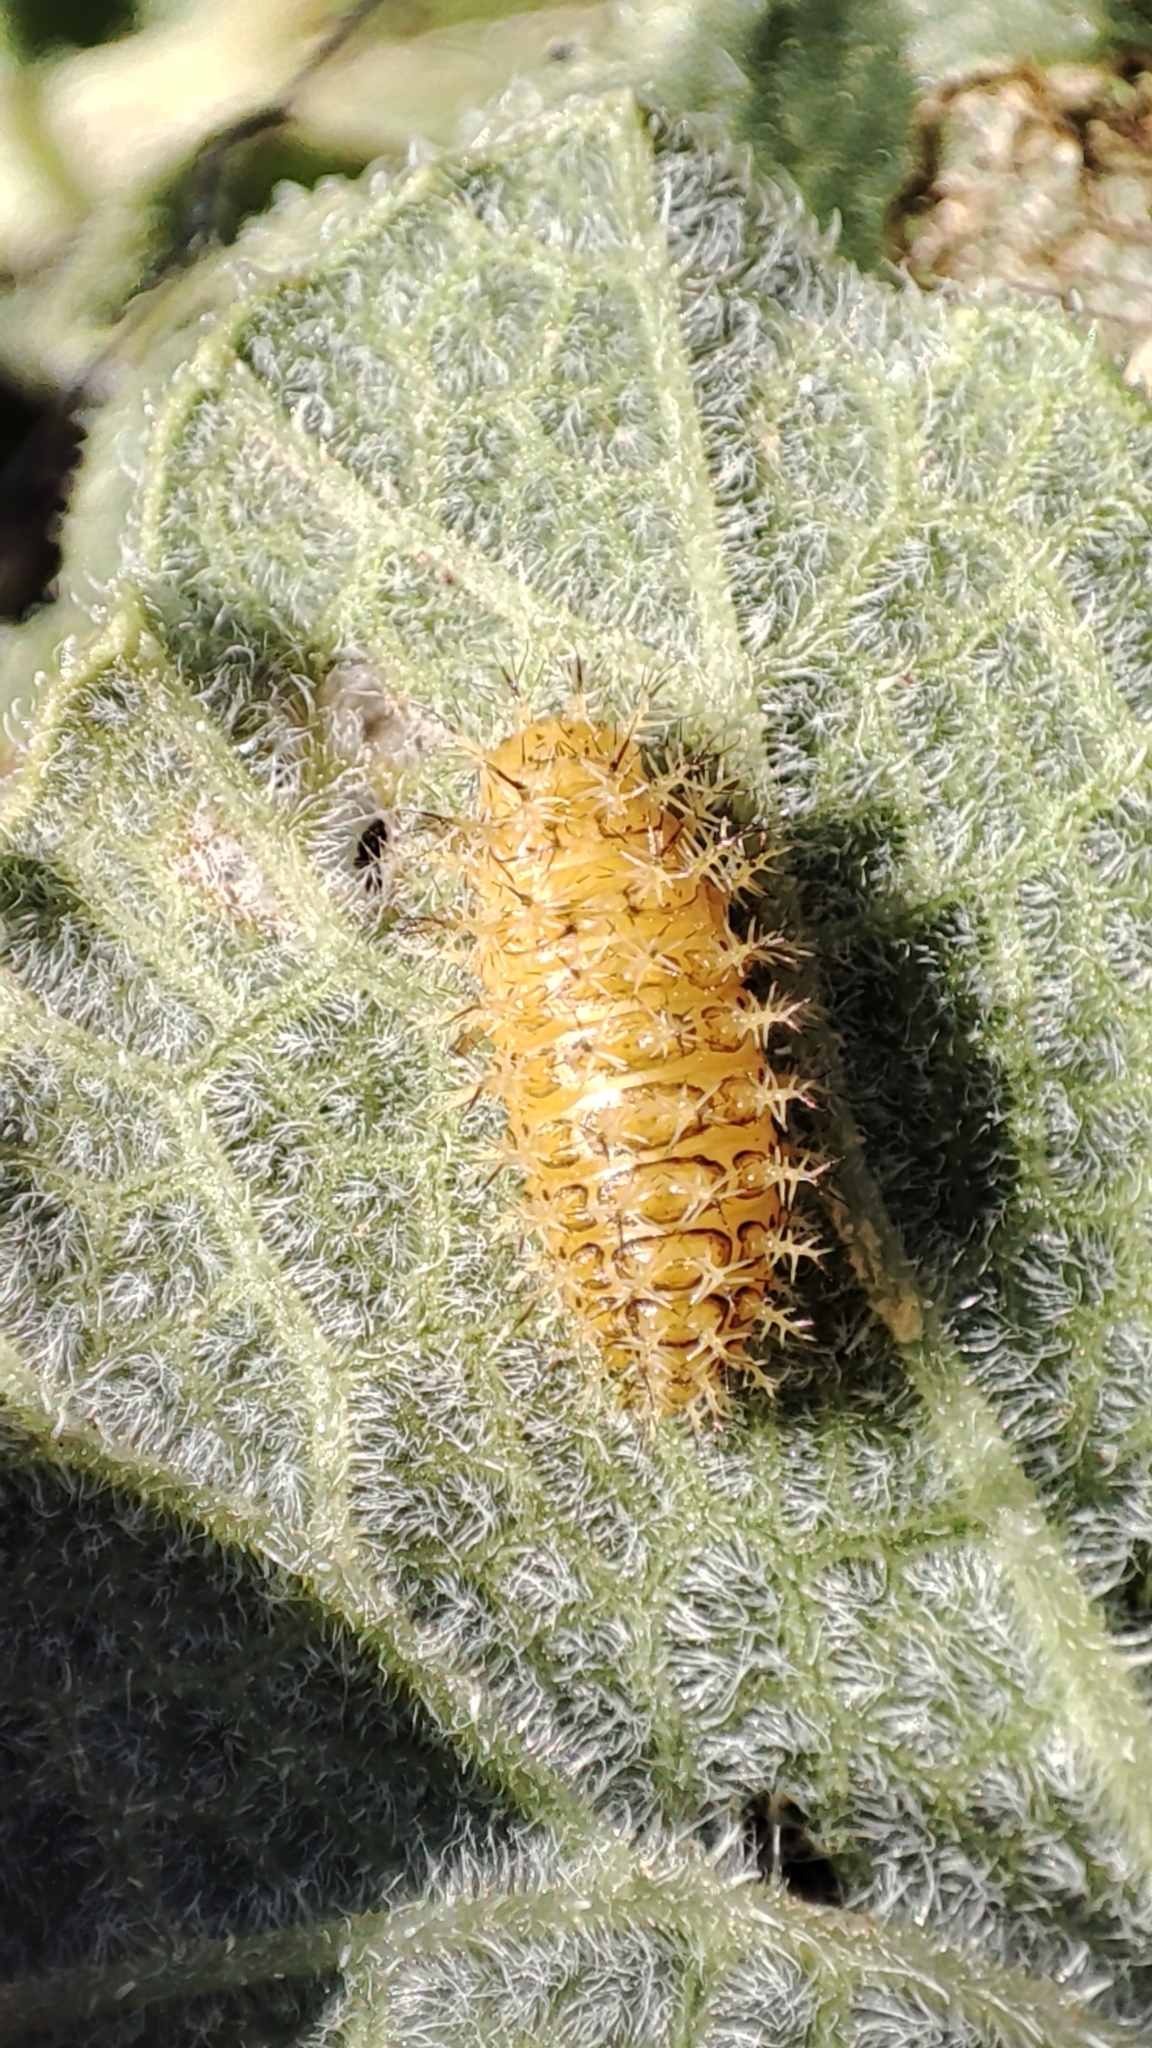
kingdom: Animalia
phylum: Arthropoda
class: Insecta
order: Coleoptera
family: Coccinellidae
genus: Henosepilachna
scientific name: Henosepilachna argus
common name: Bryony ladybird
